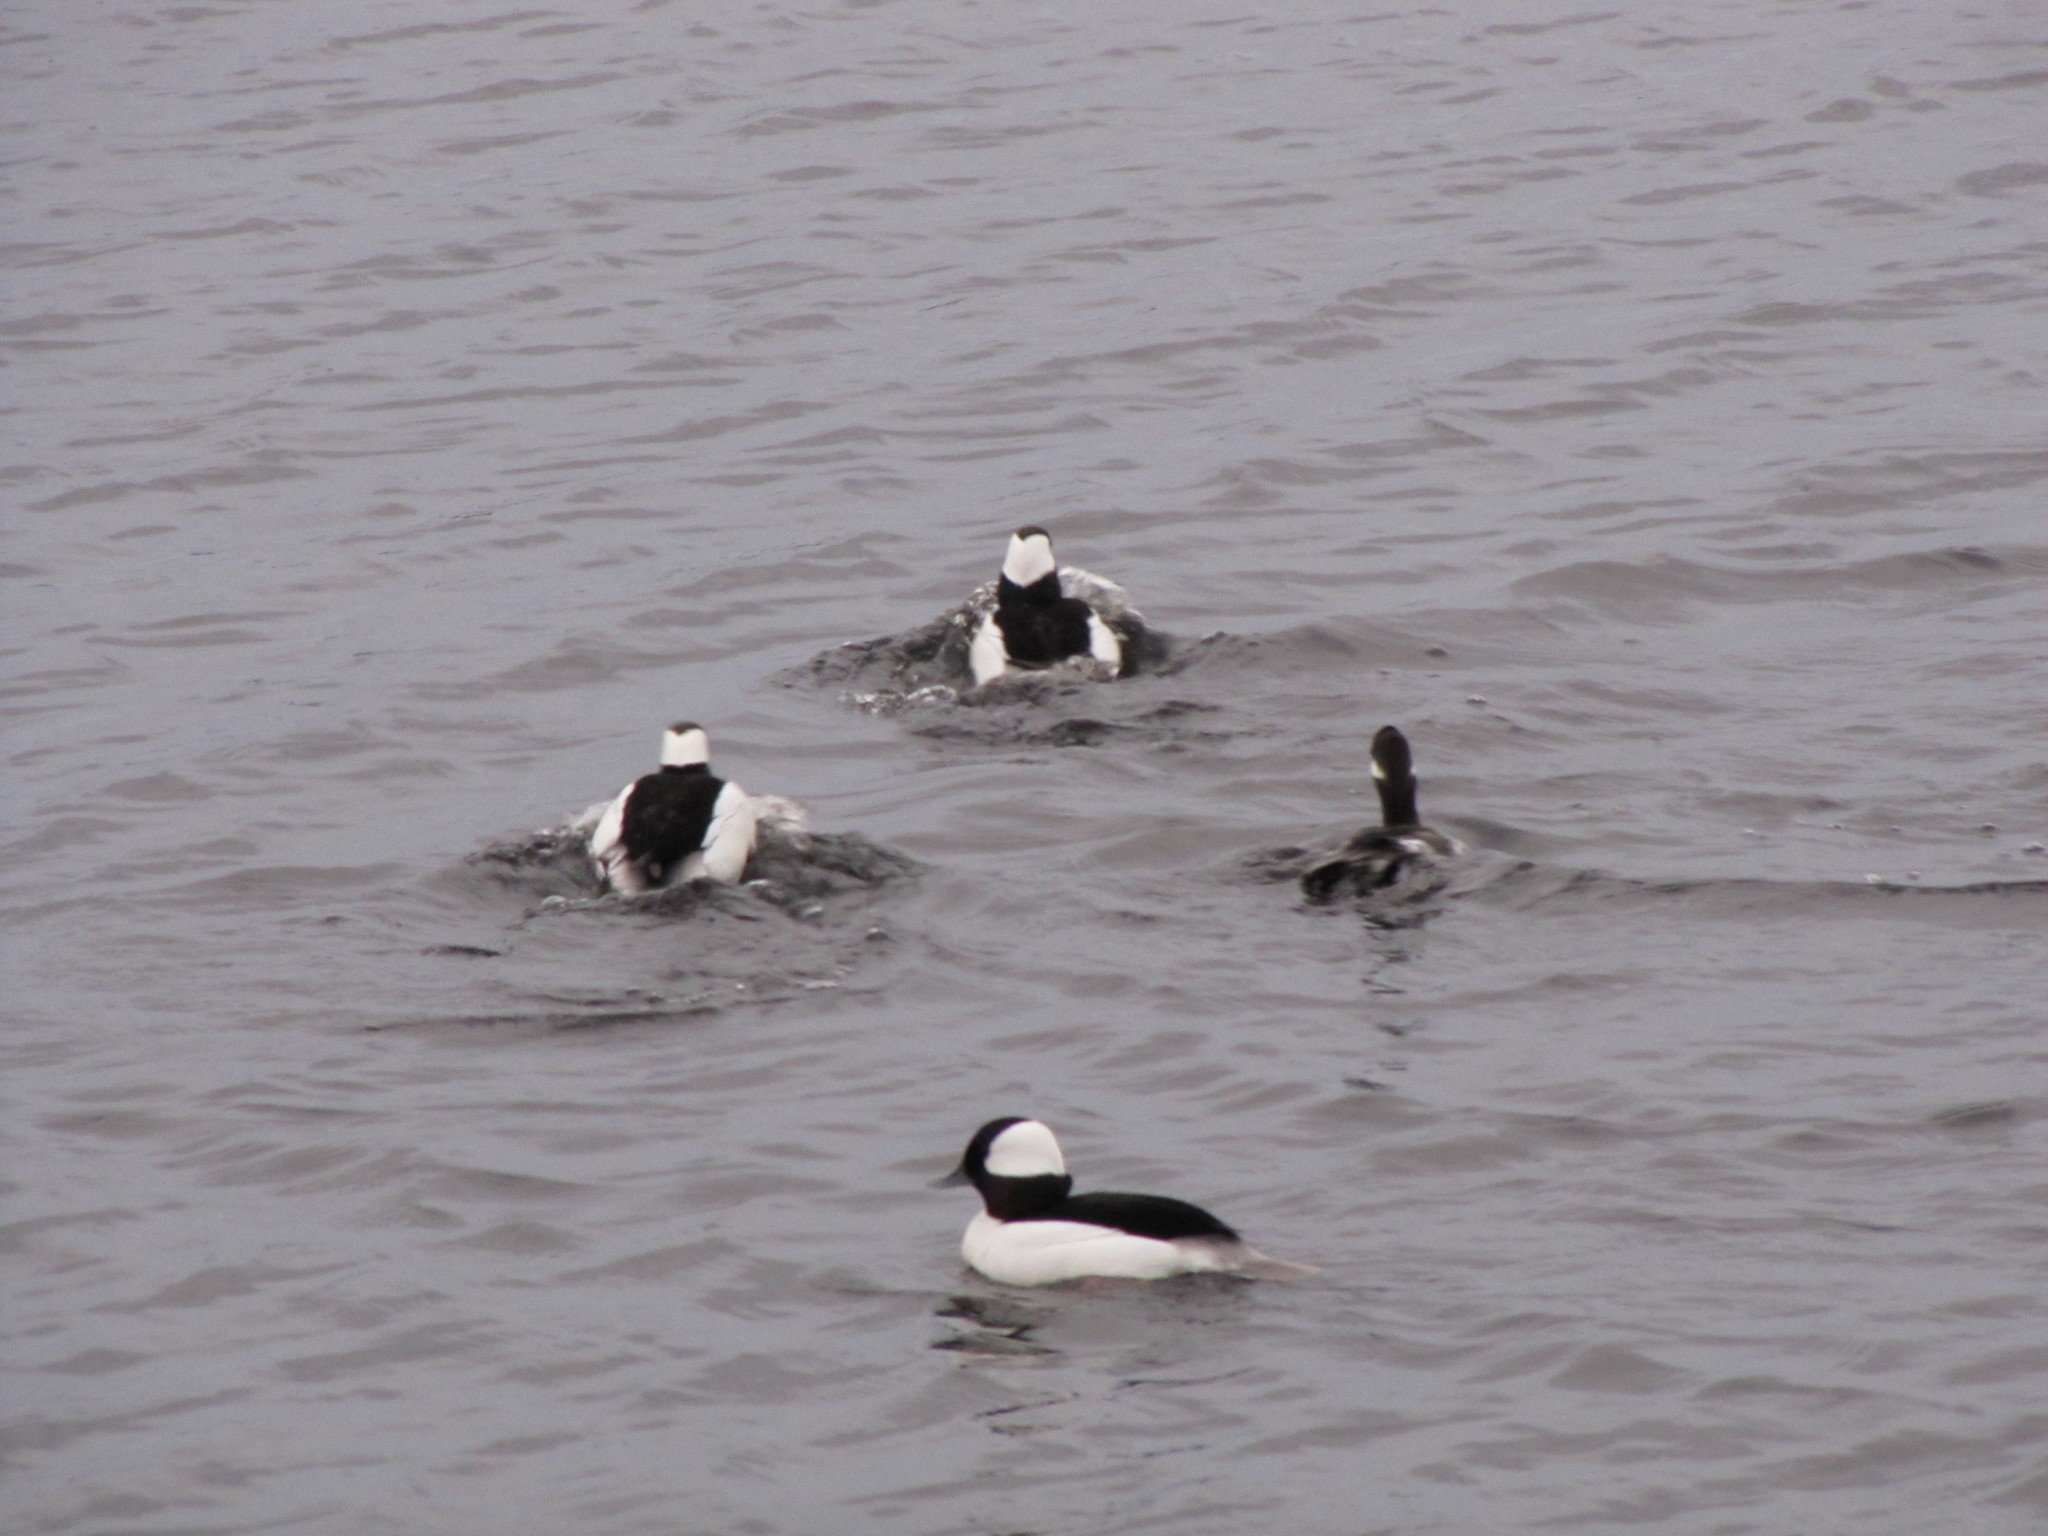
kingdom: Animalia
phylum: Chordata
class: Aves
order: Anseriformes
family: Anatidae
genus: Bucephala
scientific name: Bucephala albeola
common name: Bufflehead
